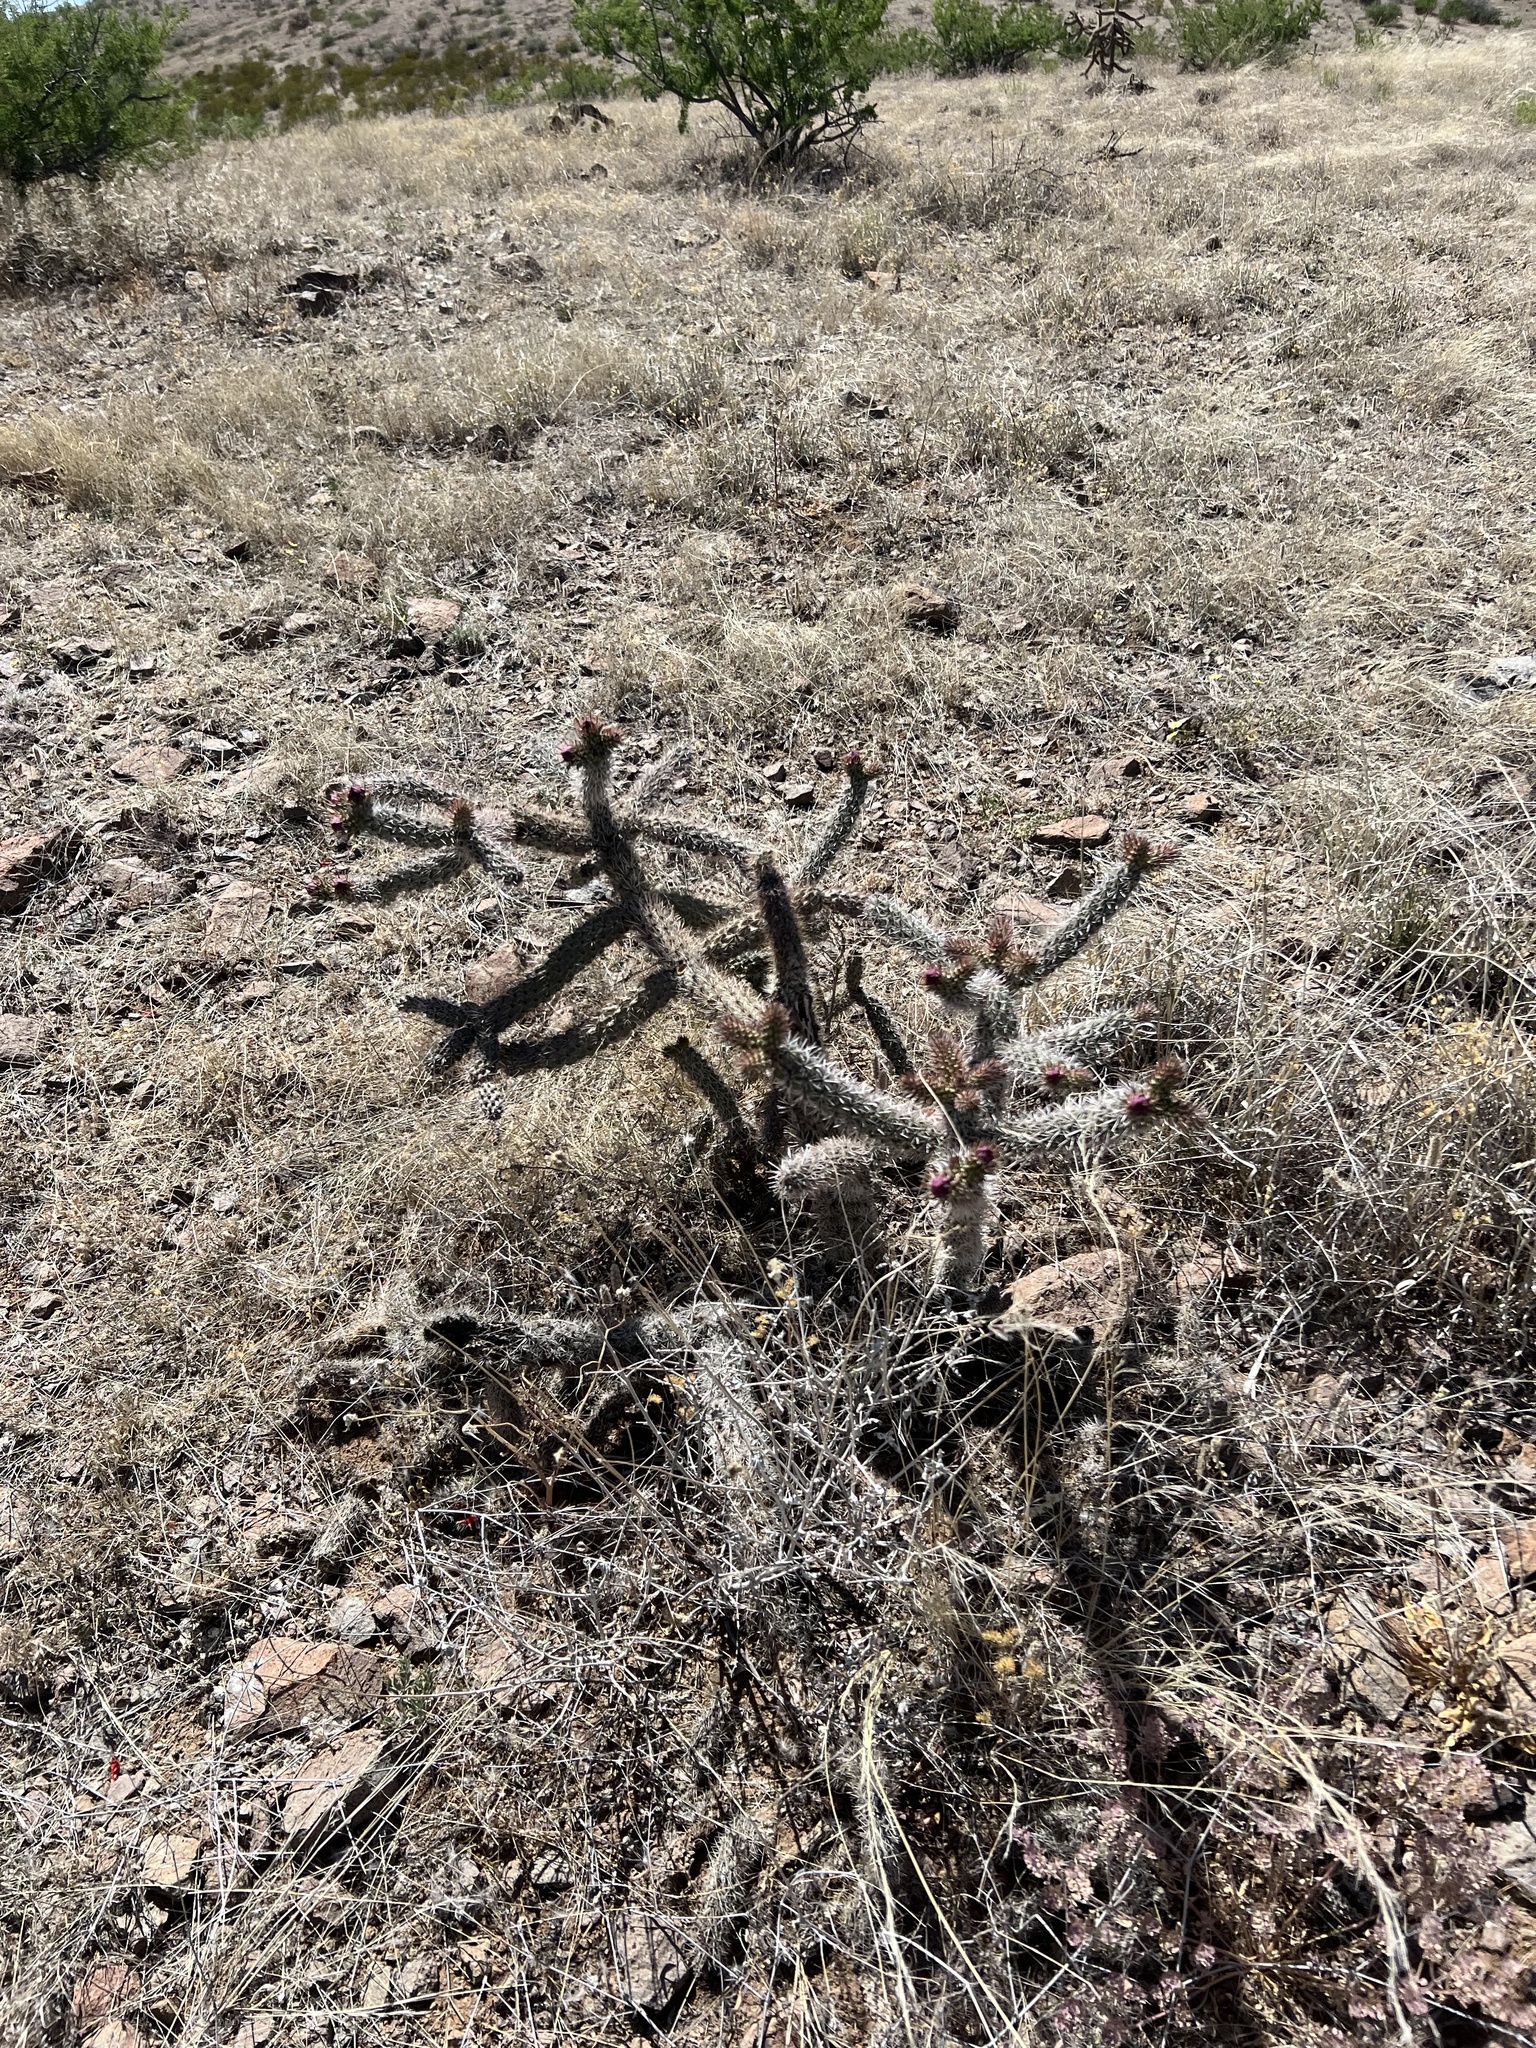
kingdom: Plantae
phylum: Tracheophyta
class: Magnoliopsida
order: Caryophyllales
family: Cactaceae
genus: Cylindropuntia
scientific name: Cylindropuntia imbricata
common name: Candelabrum cactus
